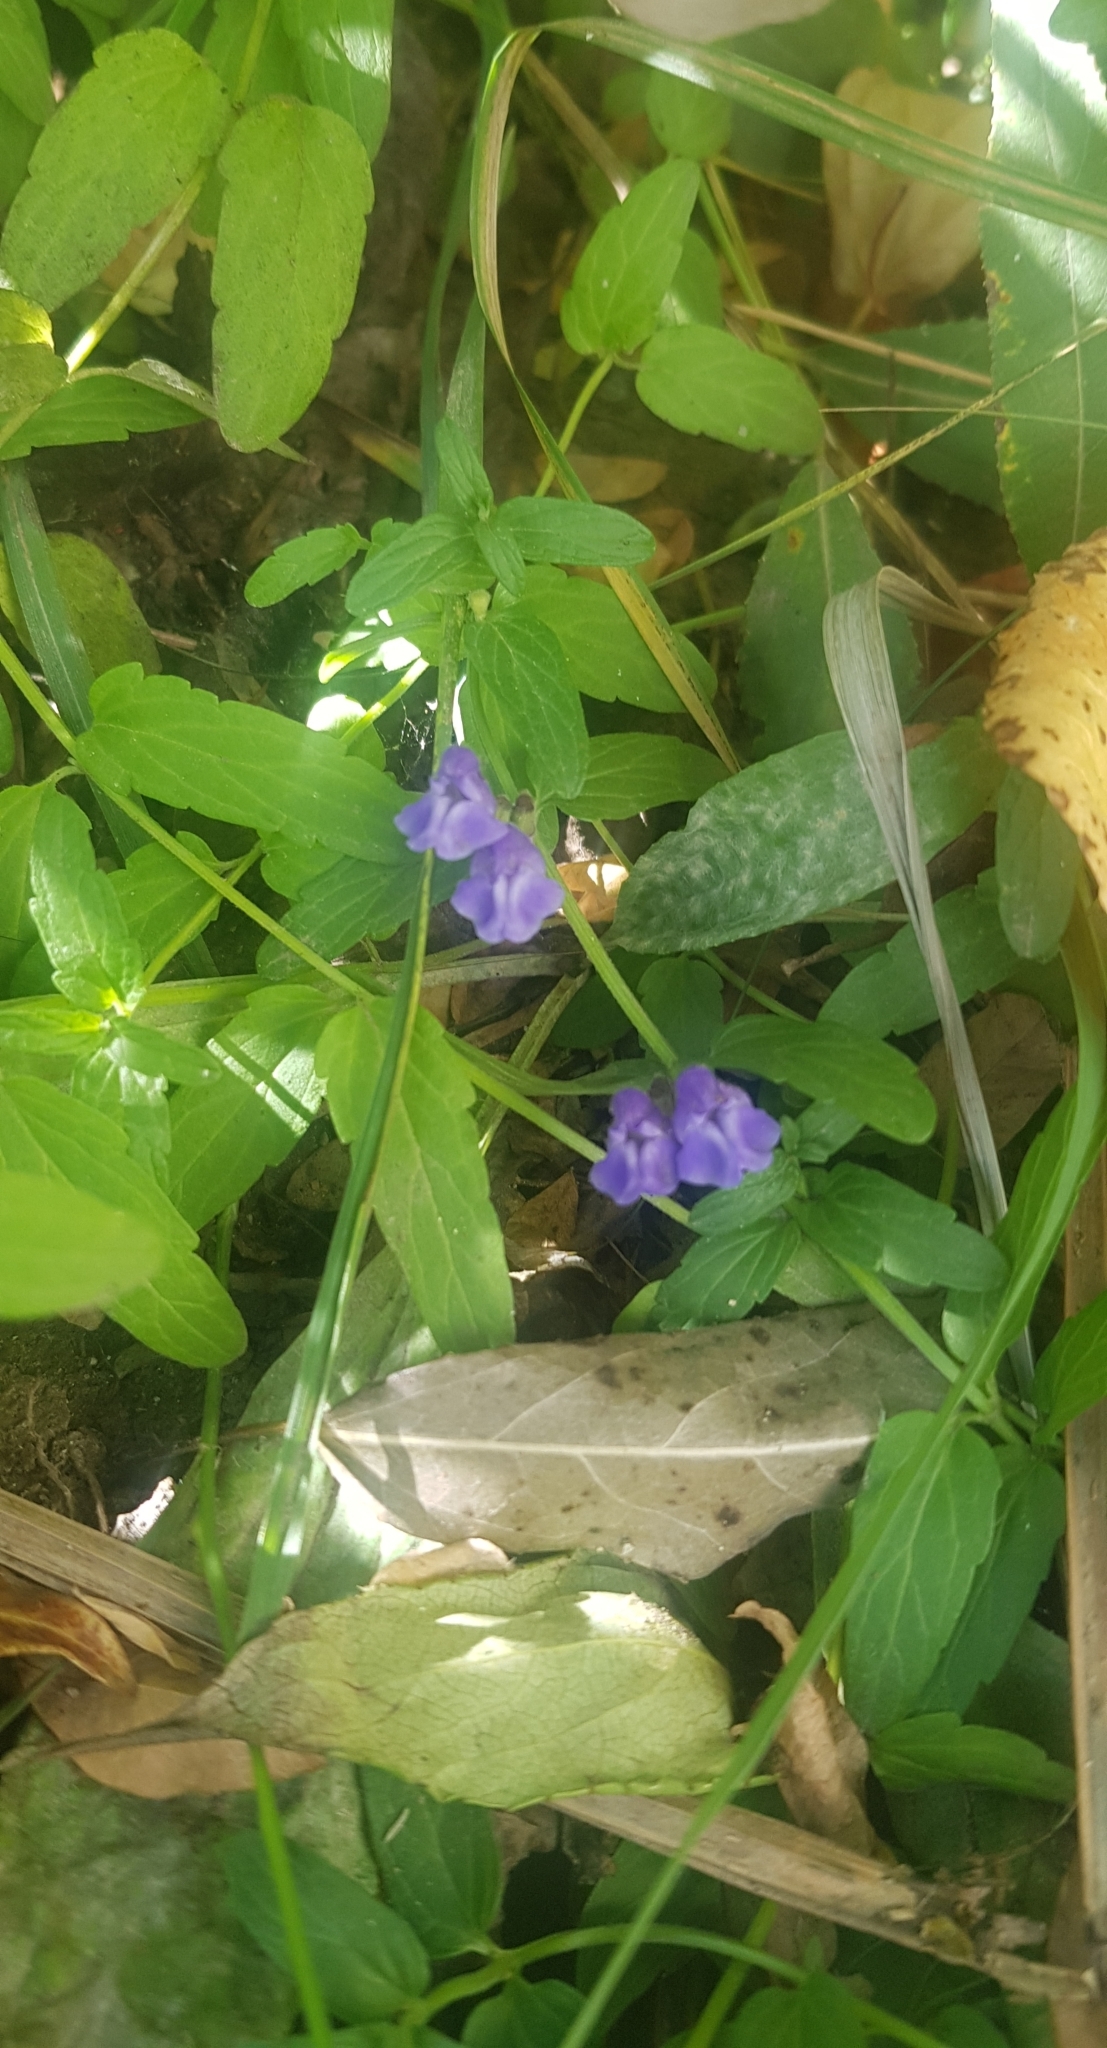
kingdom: Plantae
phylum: Tracheophyta
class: Magnoliopsida
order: Lamiales
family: Lamiaceae
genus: Scutellaria
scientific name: Scutellaria galericulata
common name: Skullcap
